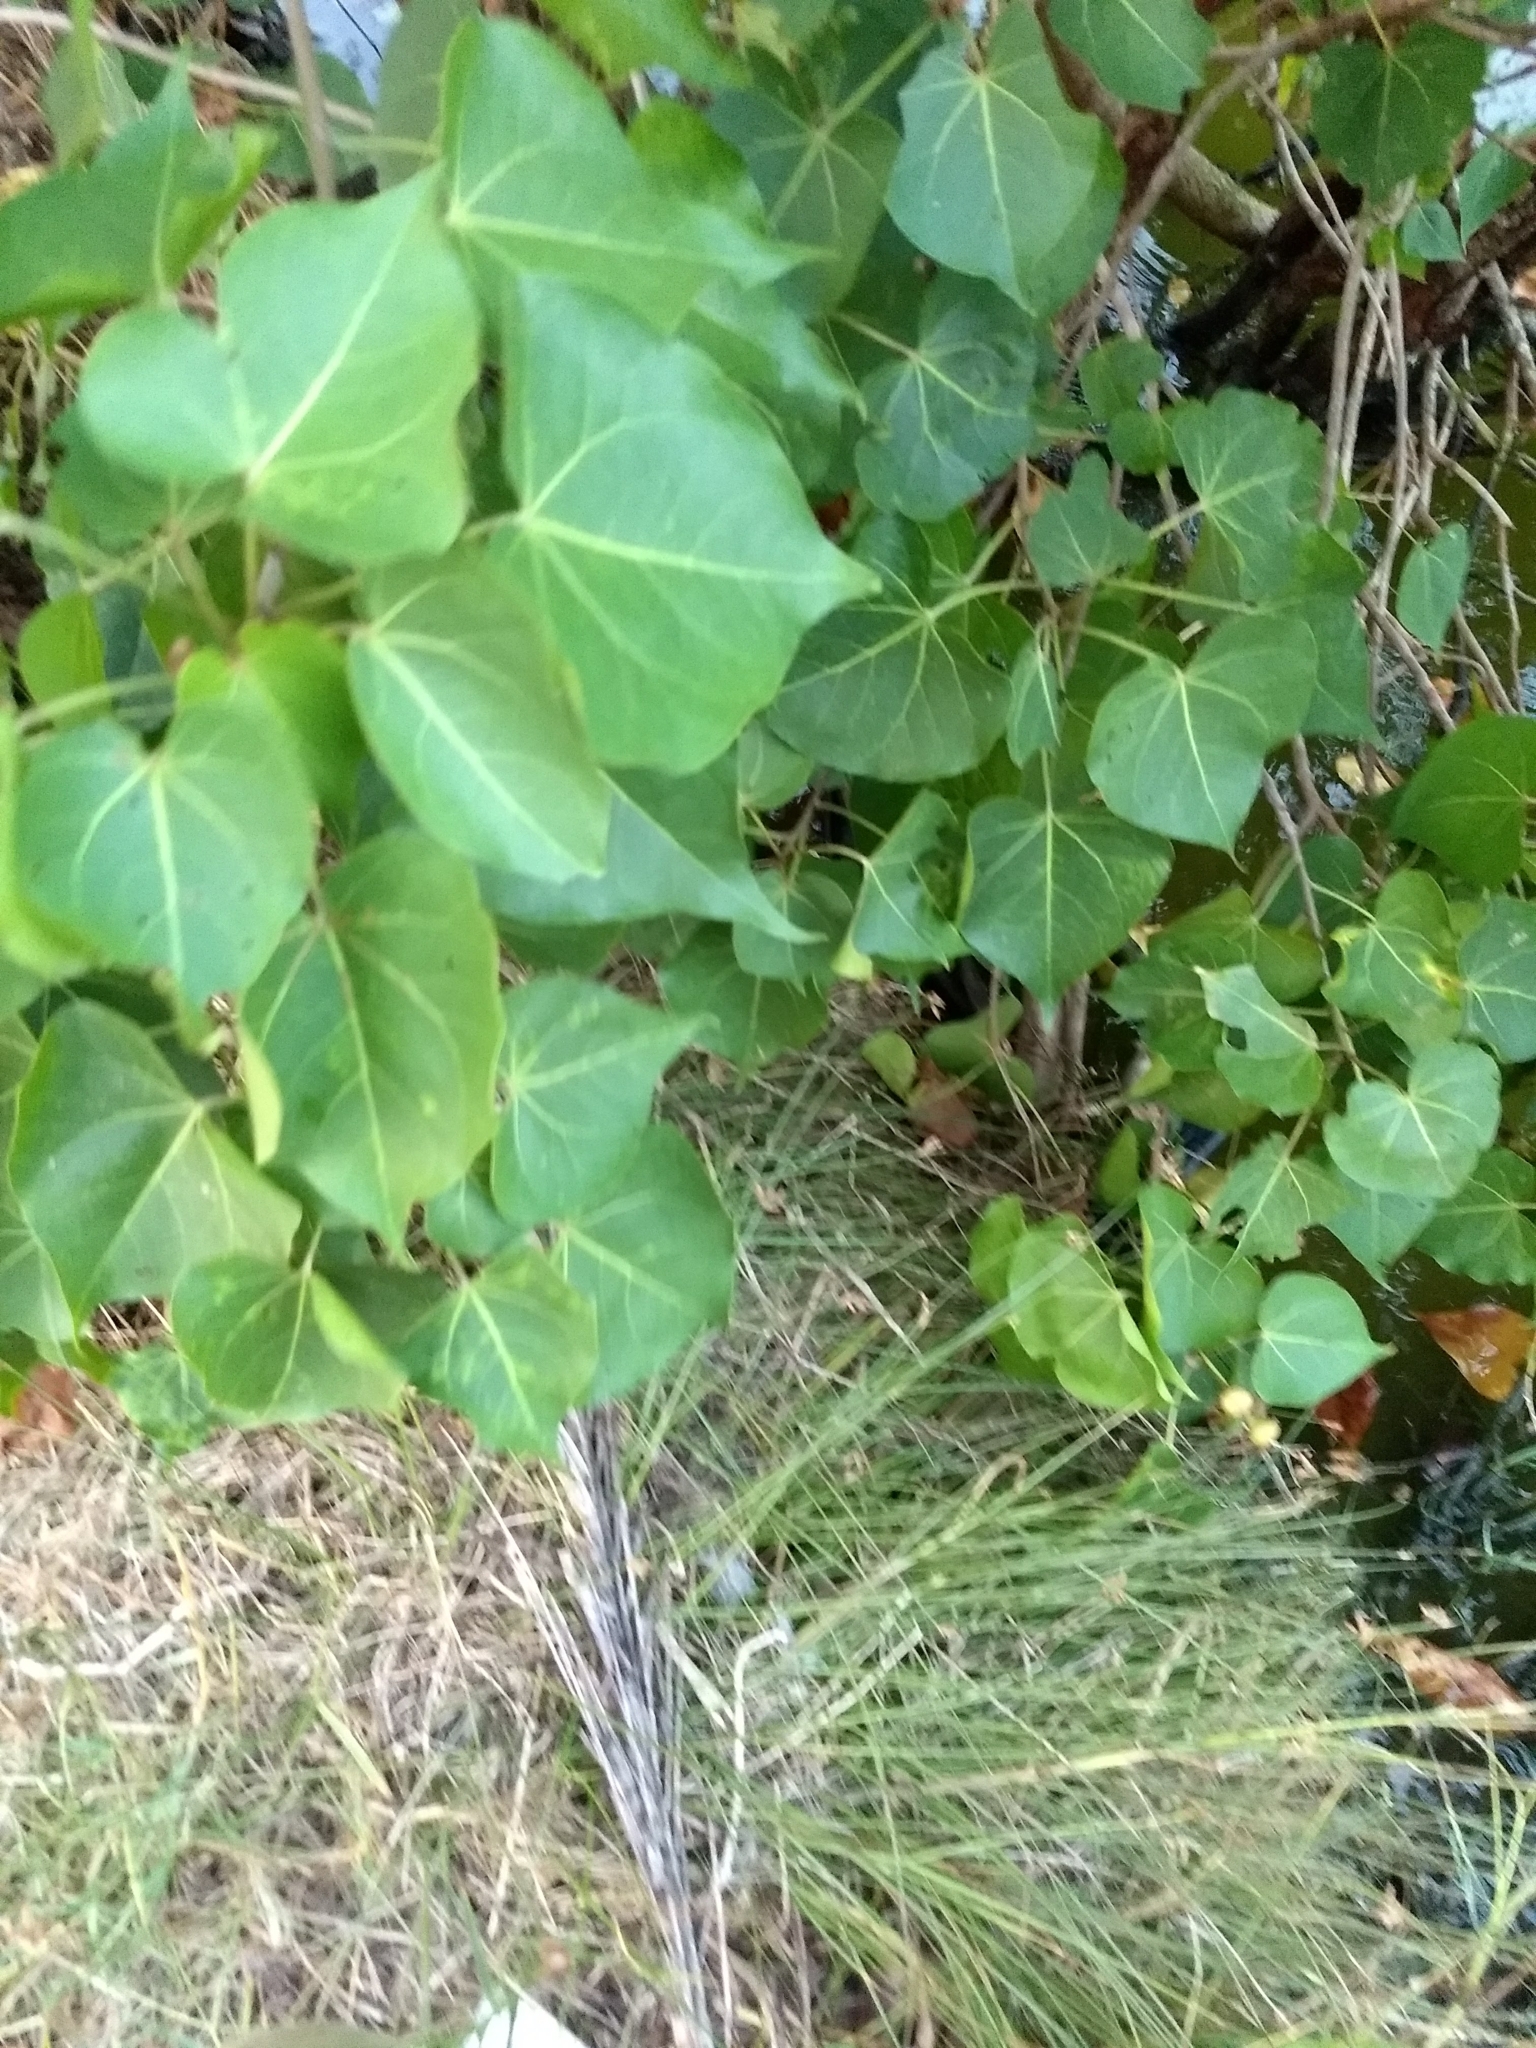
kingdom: Plantae
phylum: Tracheophyta
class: Magnoliopsida
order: Malvales
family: Malvaceae
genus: Thespesia
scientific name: Thespesia populnea
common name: Seaside mahoe
